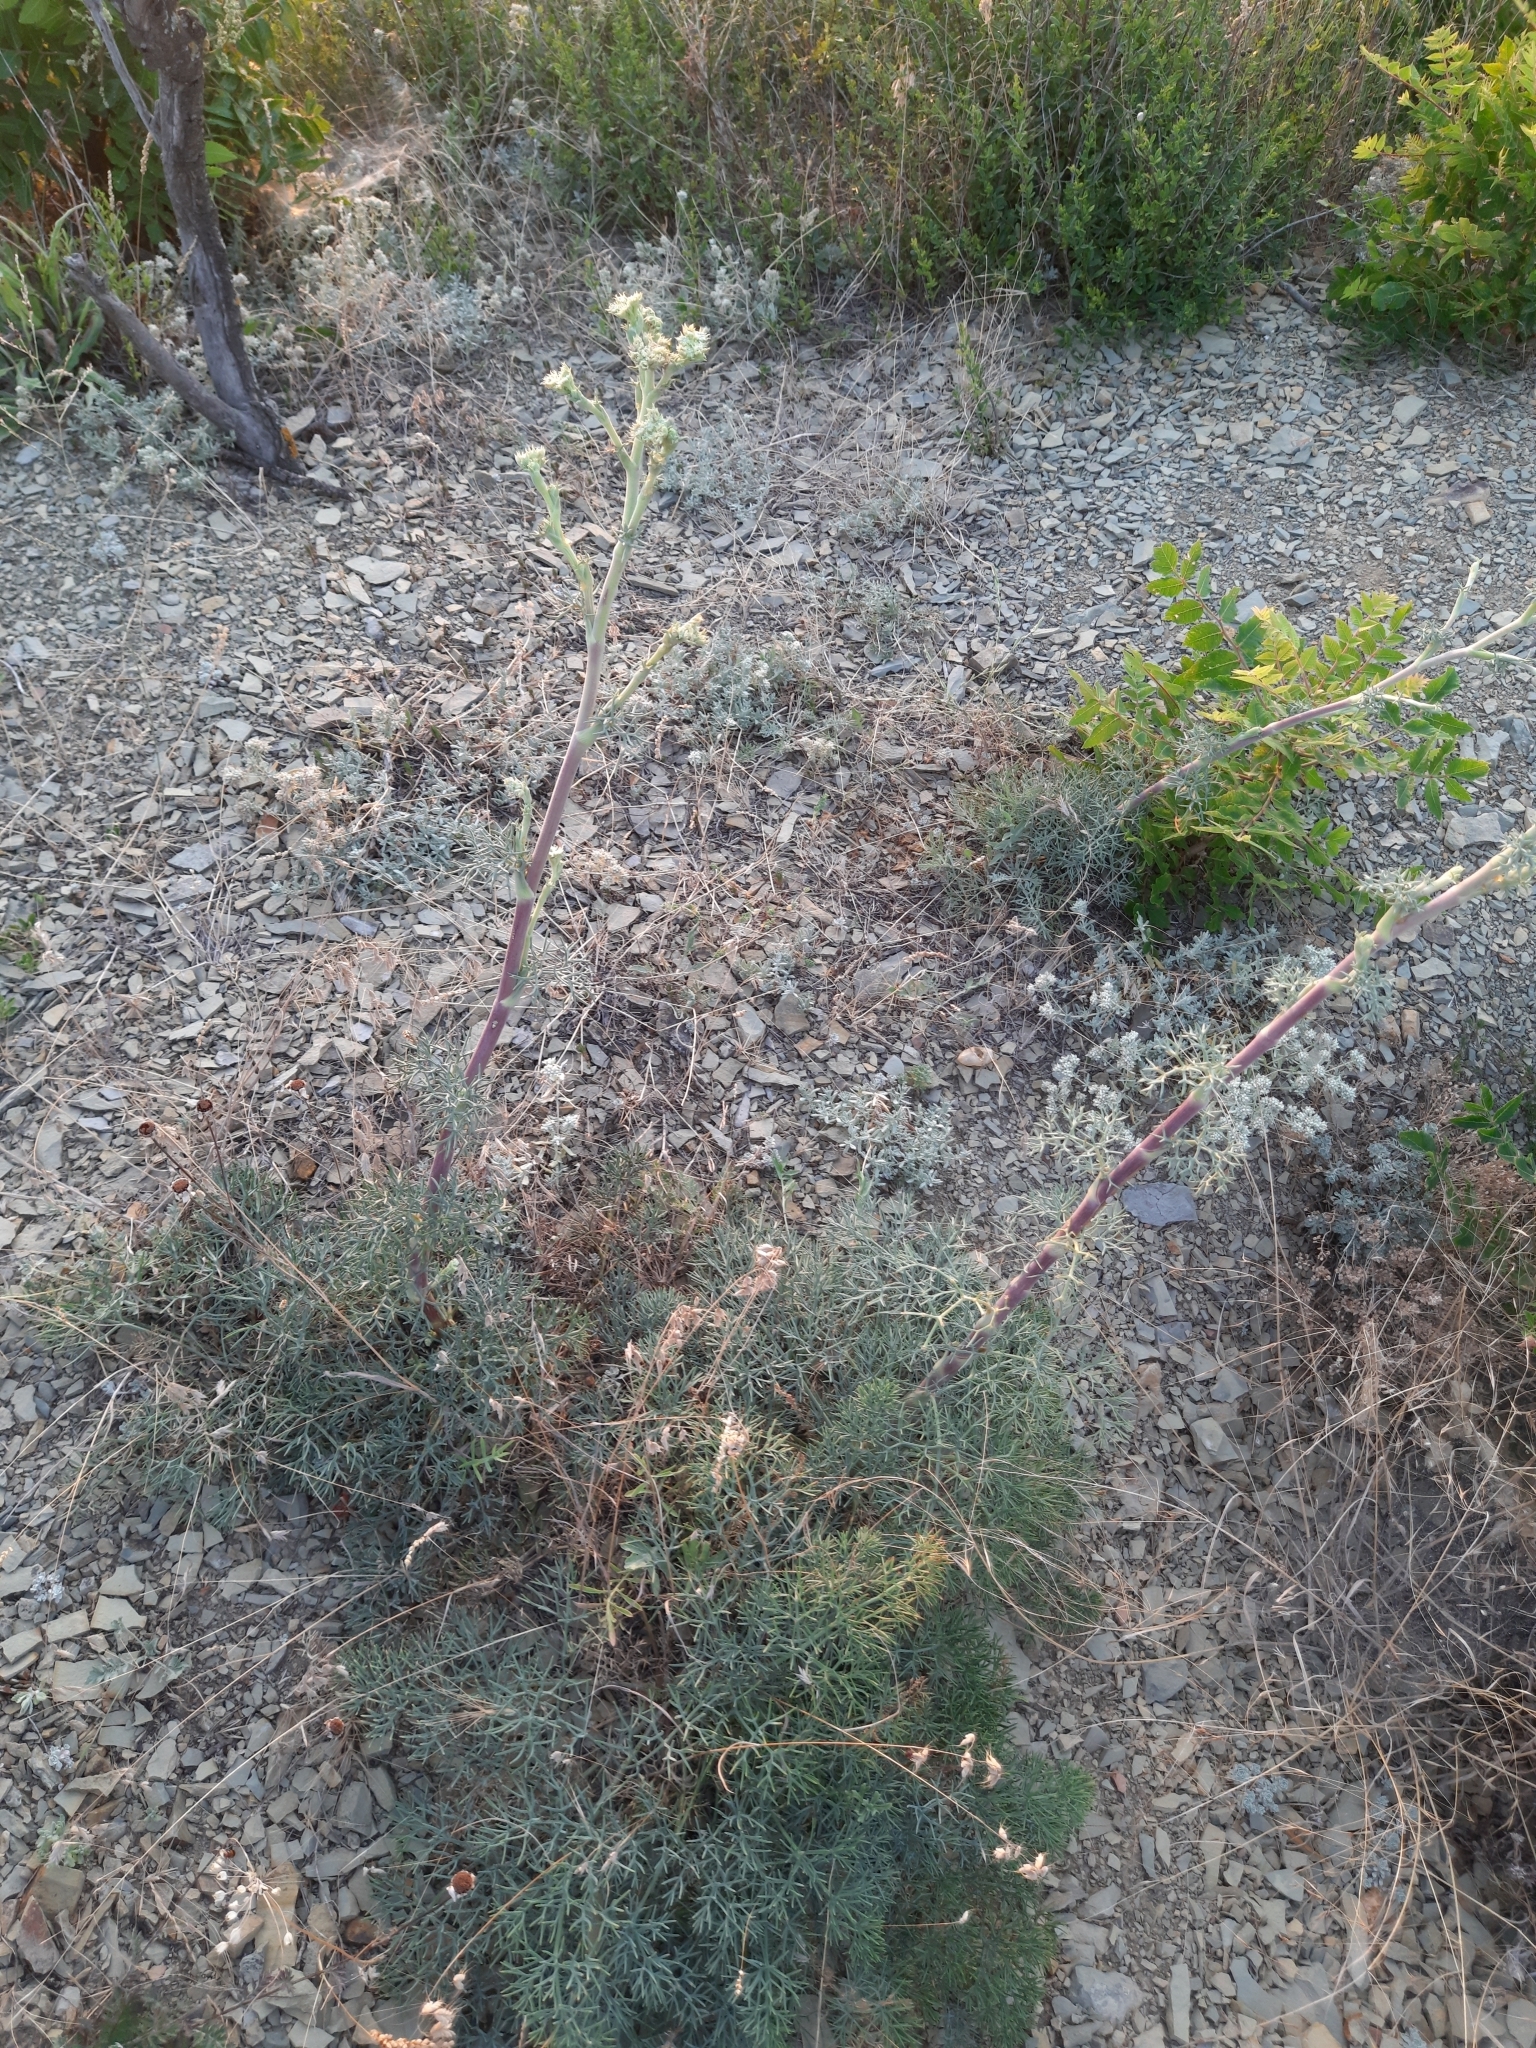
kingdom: Plantae
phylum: Tracheophyta
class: Magnoliopsida
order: Apiales
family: Apiaceae
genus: Seseli
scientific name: Seseli ponticum
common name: Pontic seseli
